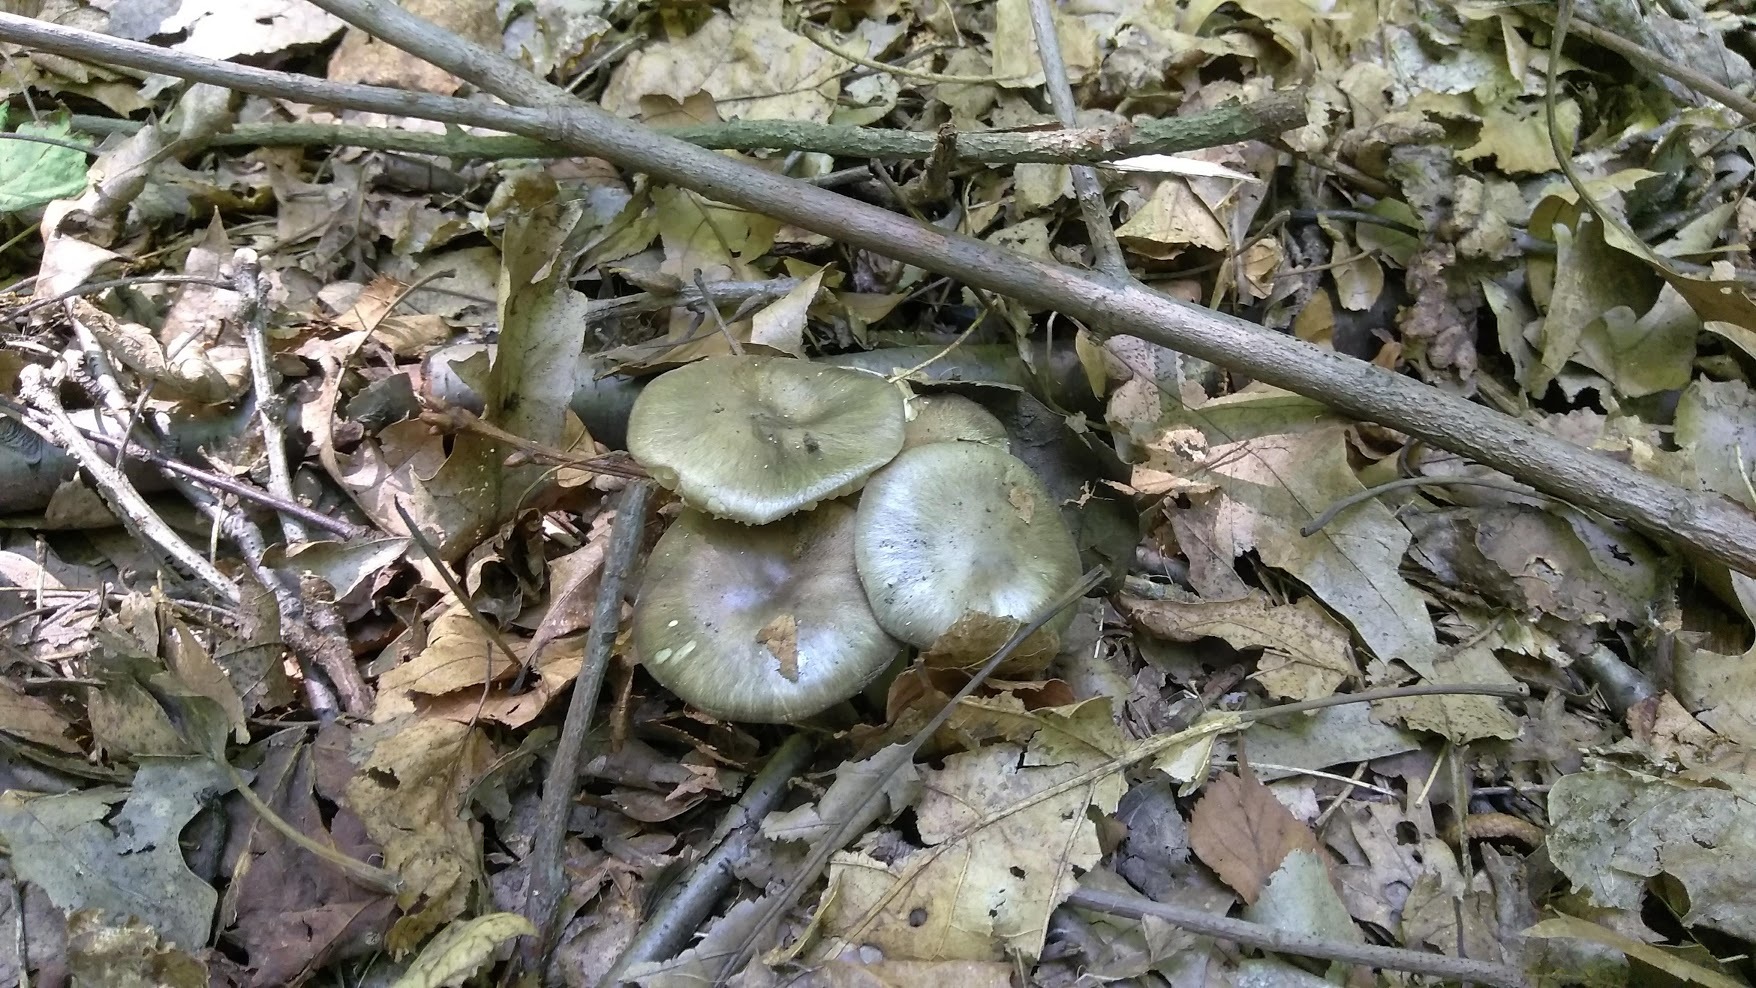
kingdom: Fungi
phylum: Basidiomycota
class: Agaricomycetes
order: Agaricales
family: Pluteaceae
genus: Pluteus
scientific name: Pluteus cervinus
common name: Deer shield
